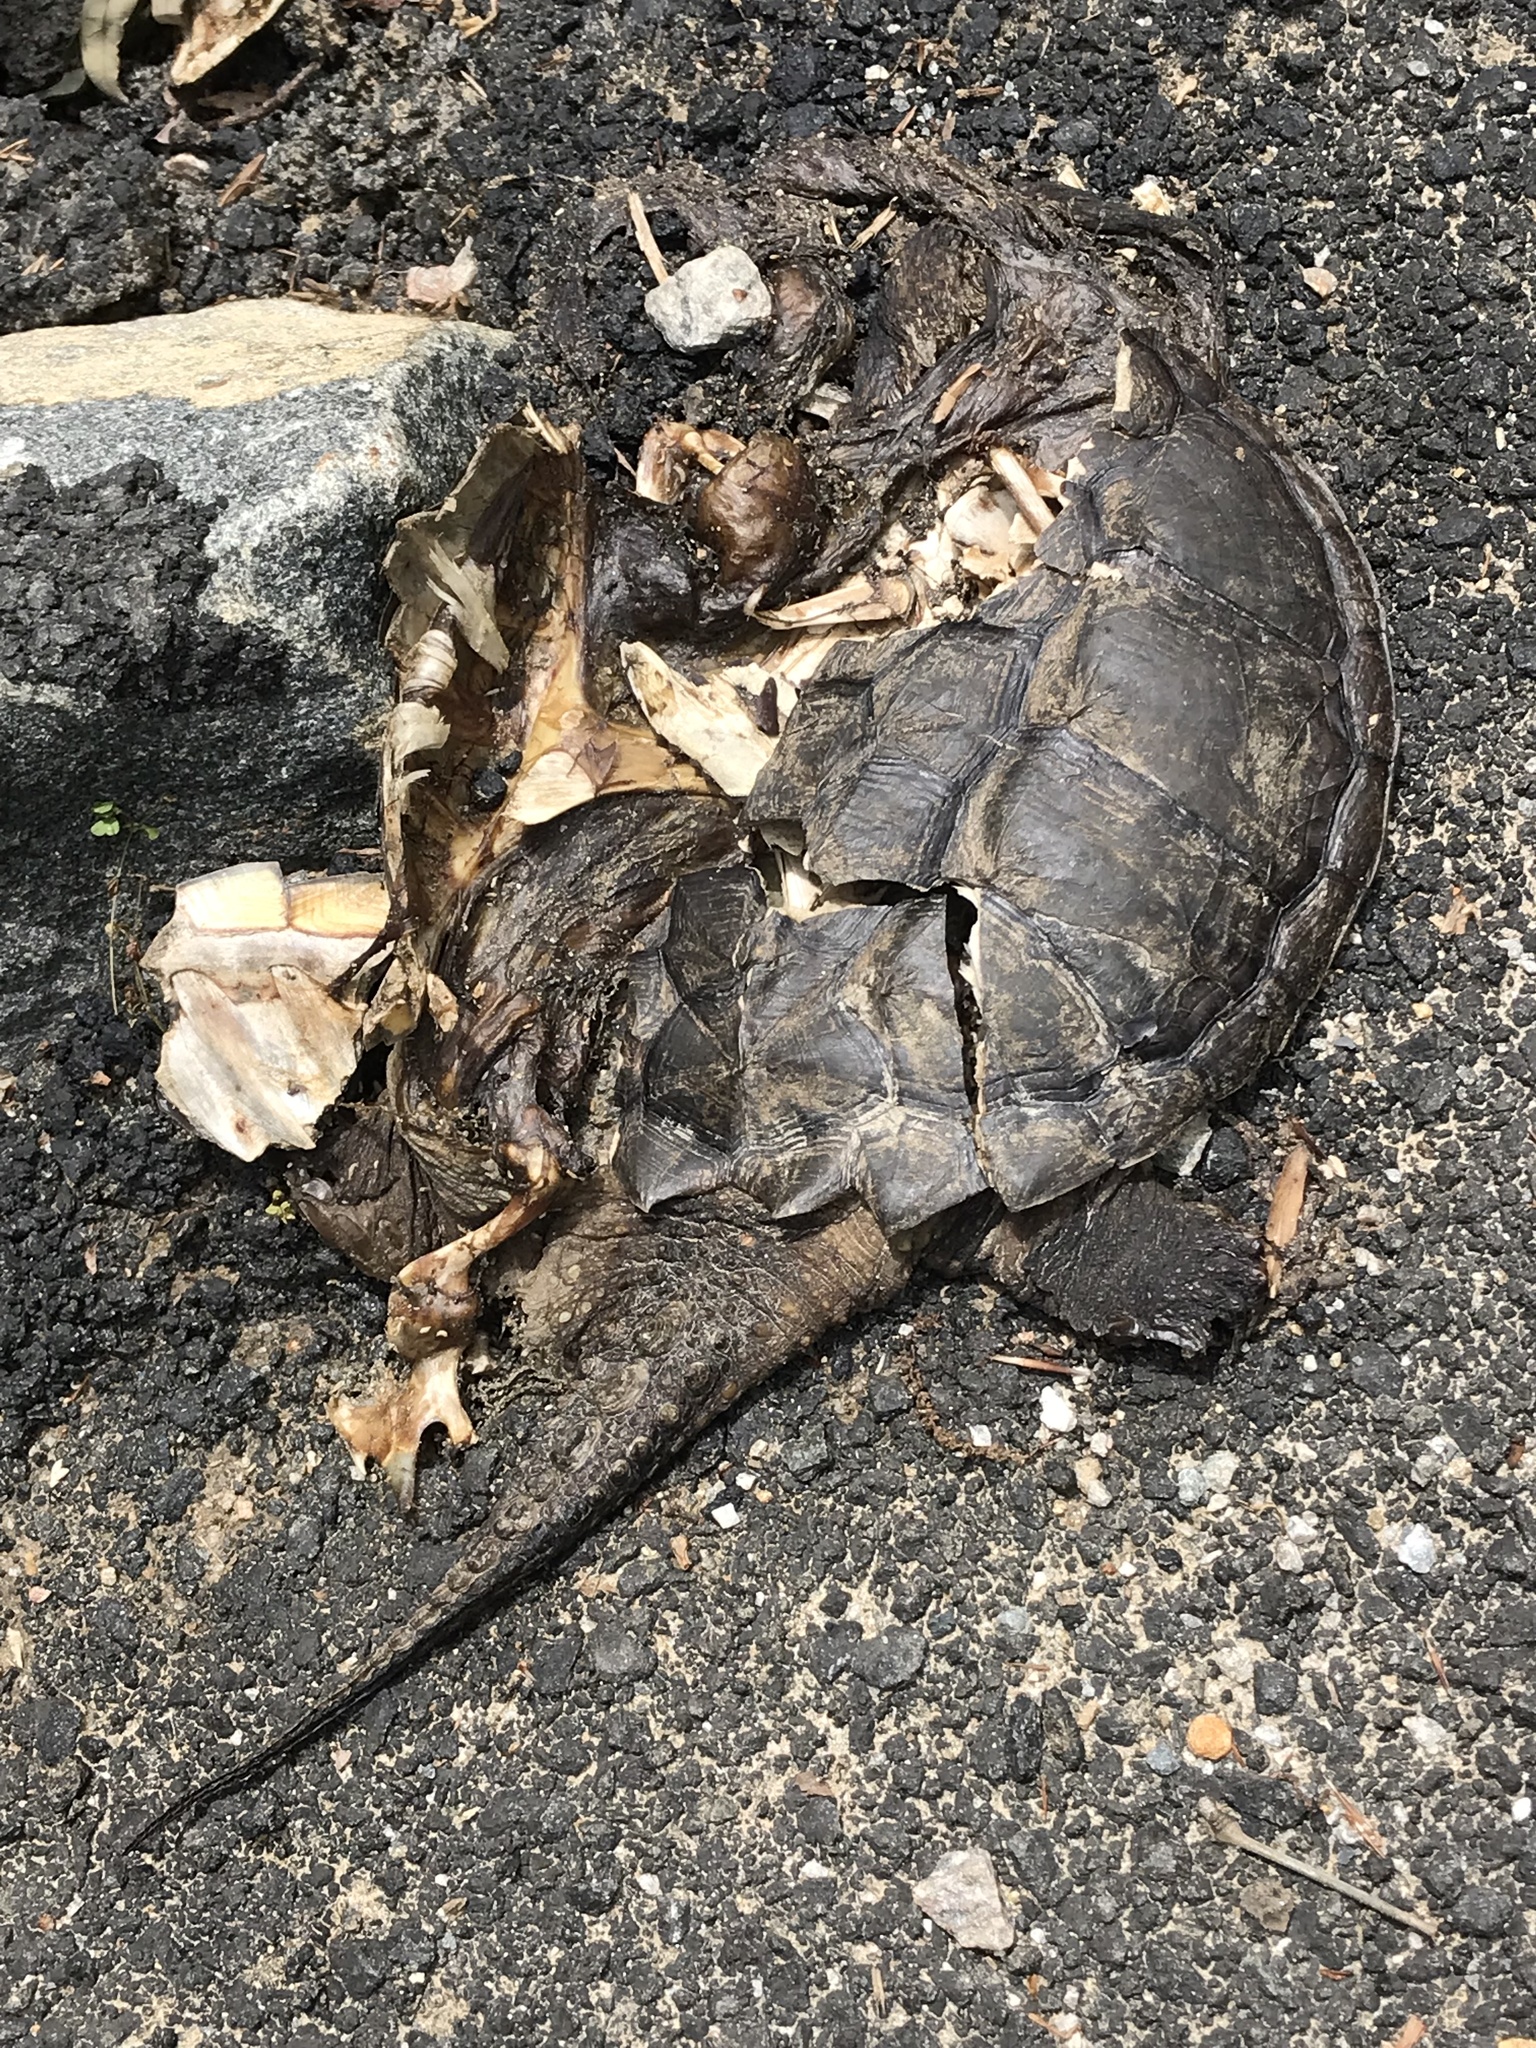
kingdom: Animalia
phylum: Chordata
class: Testudines
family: Chelydridae
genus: Chelydra
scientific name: Chelydra serpentina
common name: Common snapping turtle
